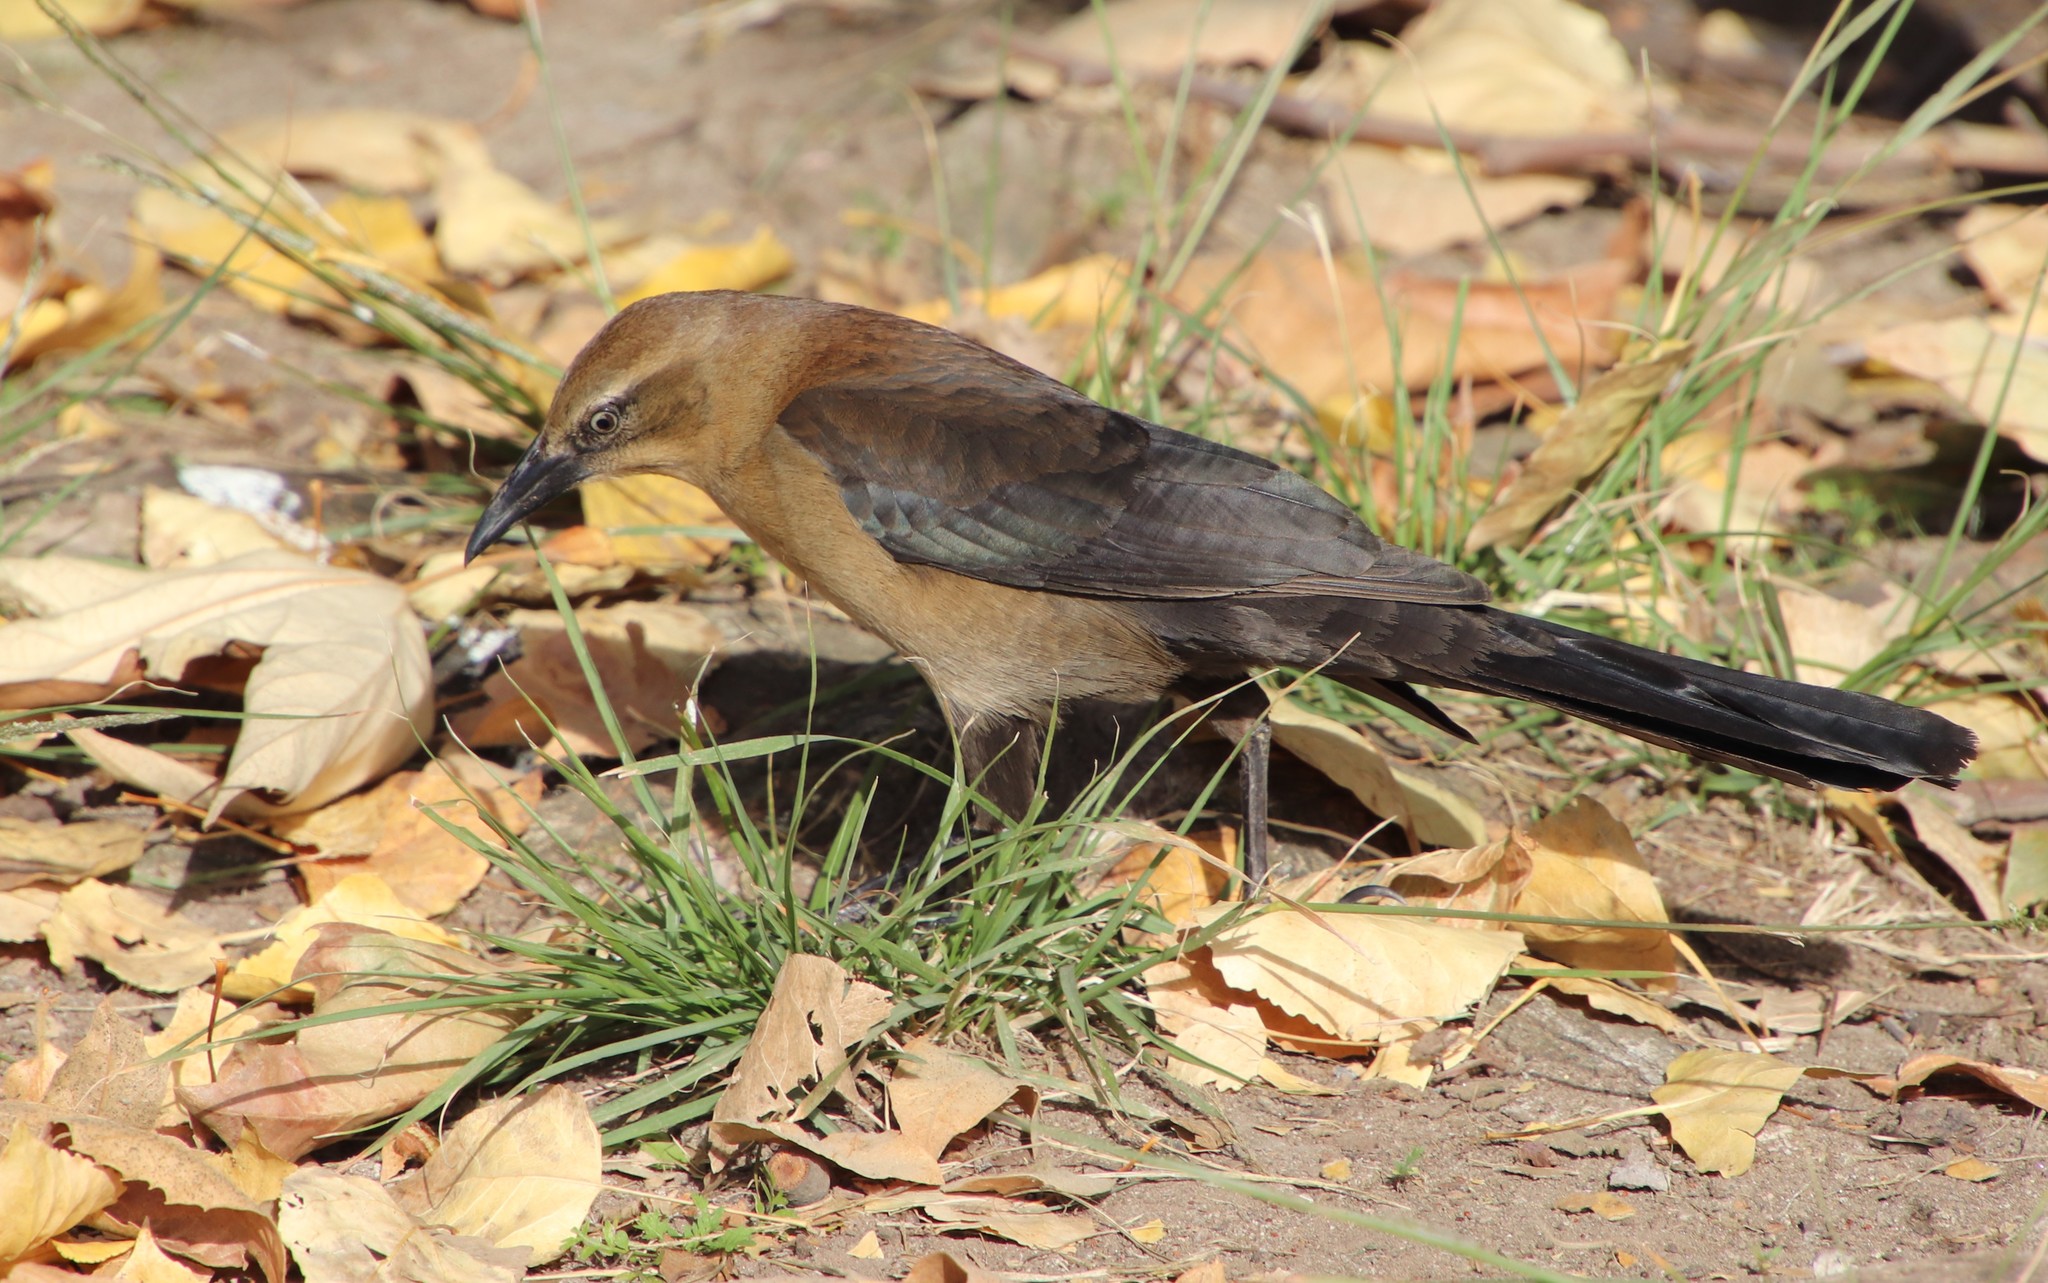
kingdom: Animalia
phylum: Chordata
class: Aves
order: Passeriformes
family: Icteridae
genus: Quiscalus
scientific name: Quiscalus mexicanus
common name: Great-tailed grackle
